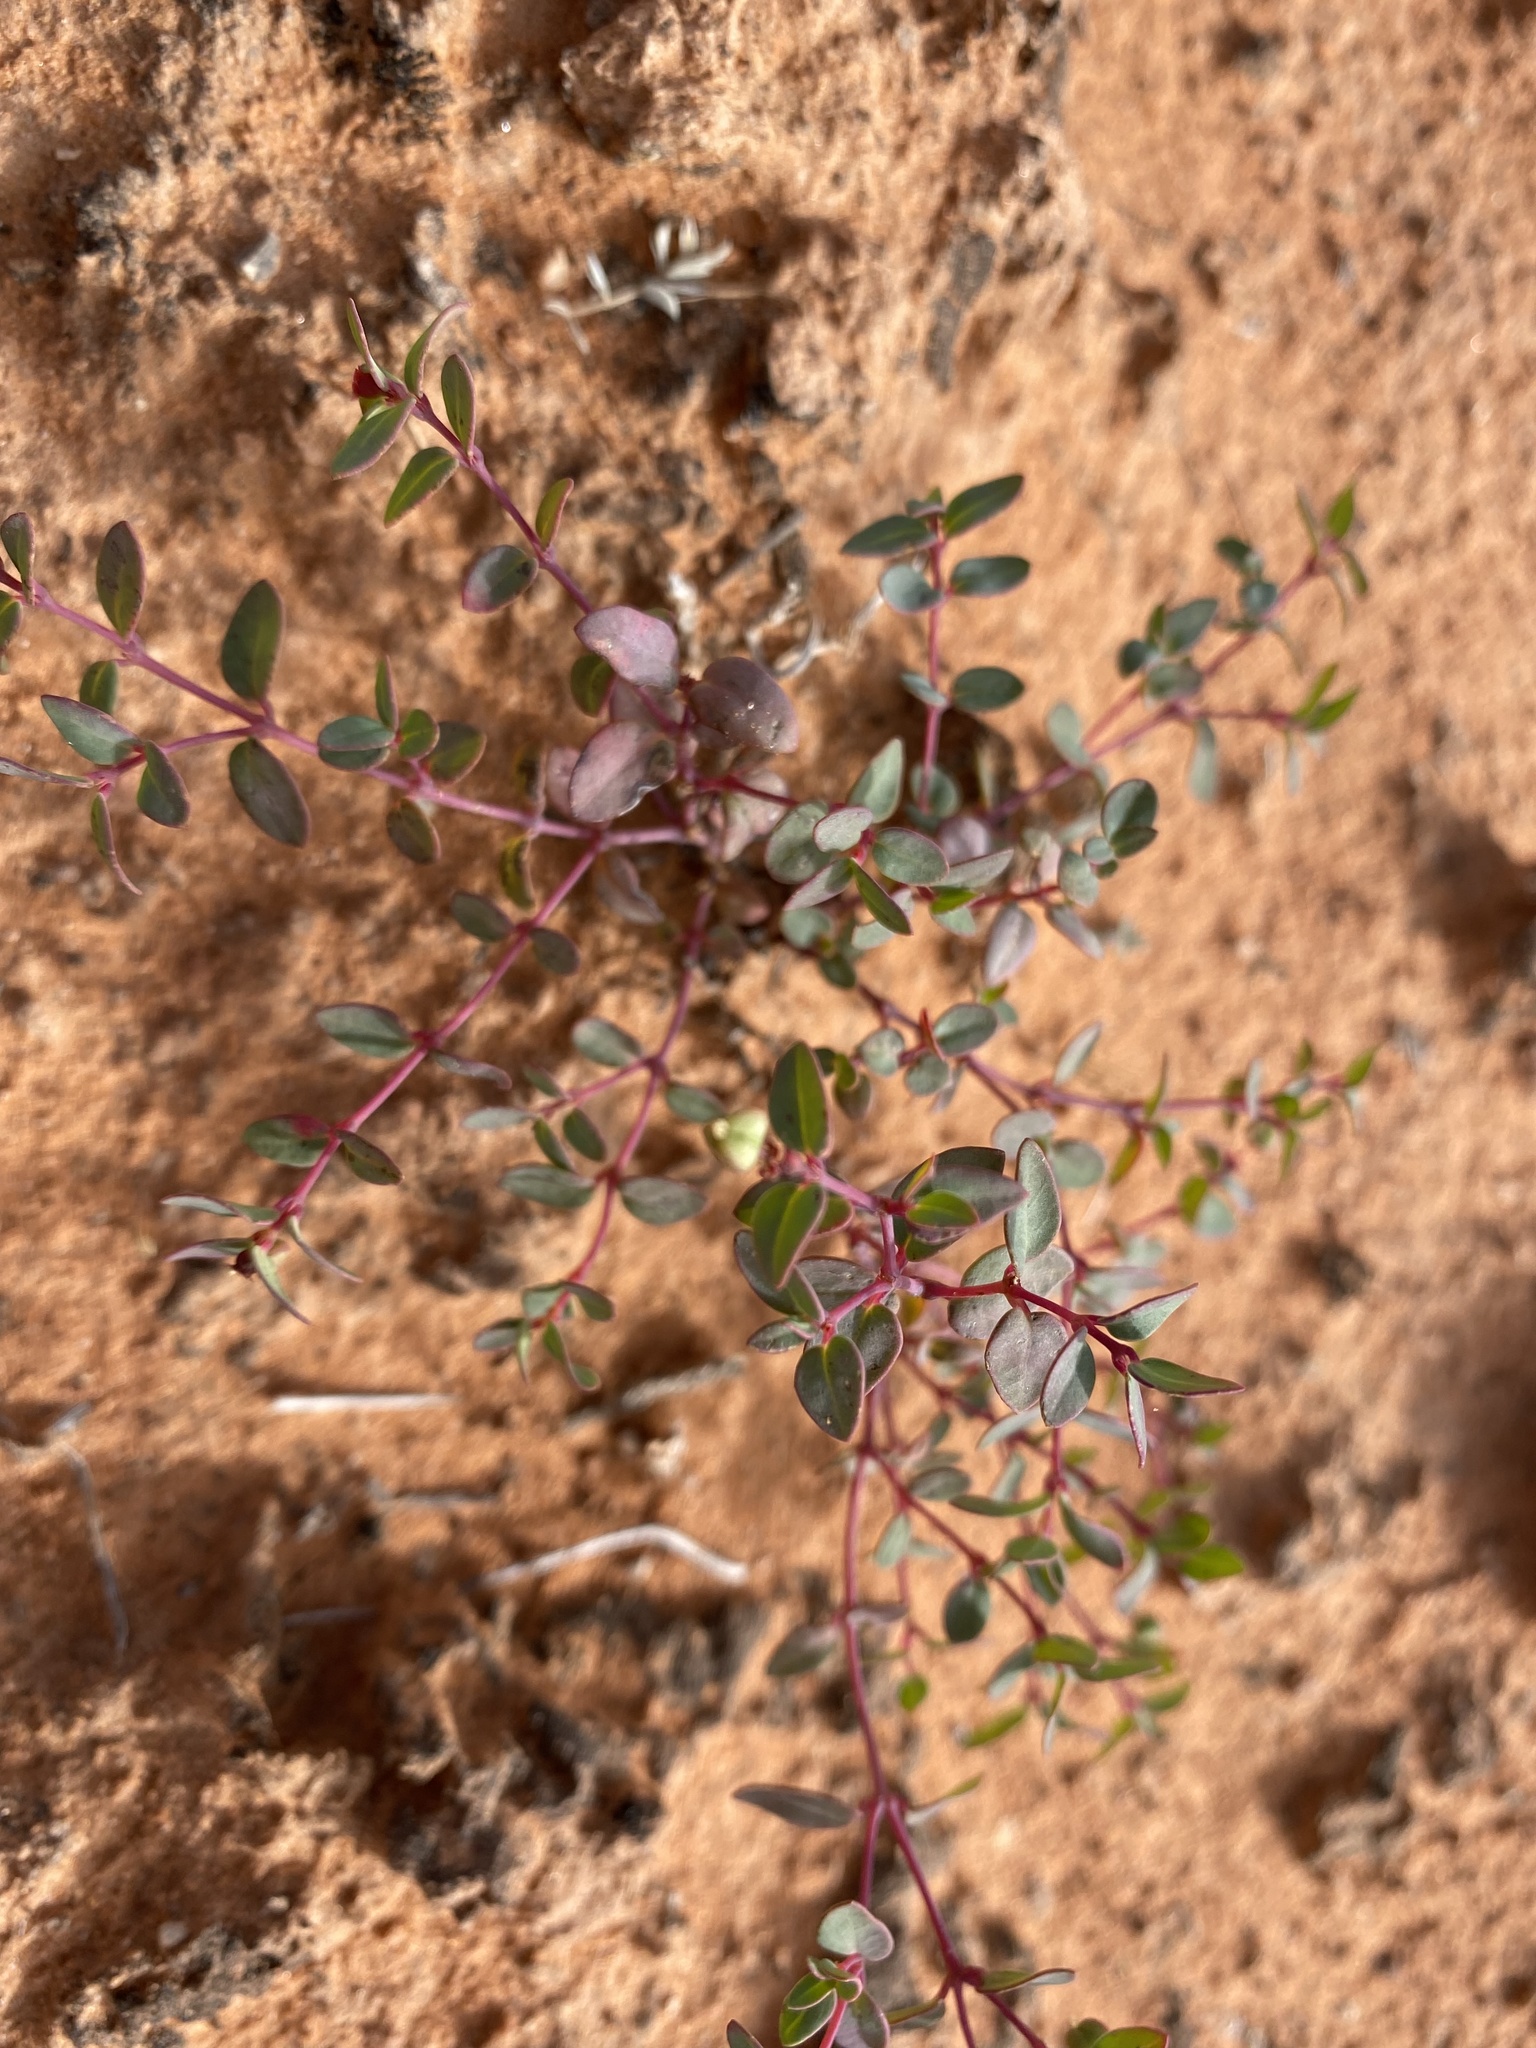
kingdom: Plantae
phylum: Tracheophyta
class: Magnoliopsida
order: Malpighiales
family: Euphorbiaceae
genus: Euphorbia
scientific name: Euphorbia fendleri
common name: Fendler's euphorbia
